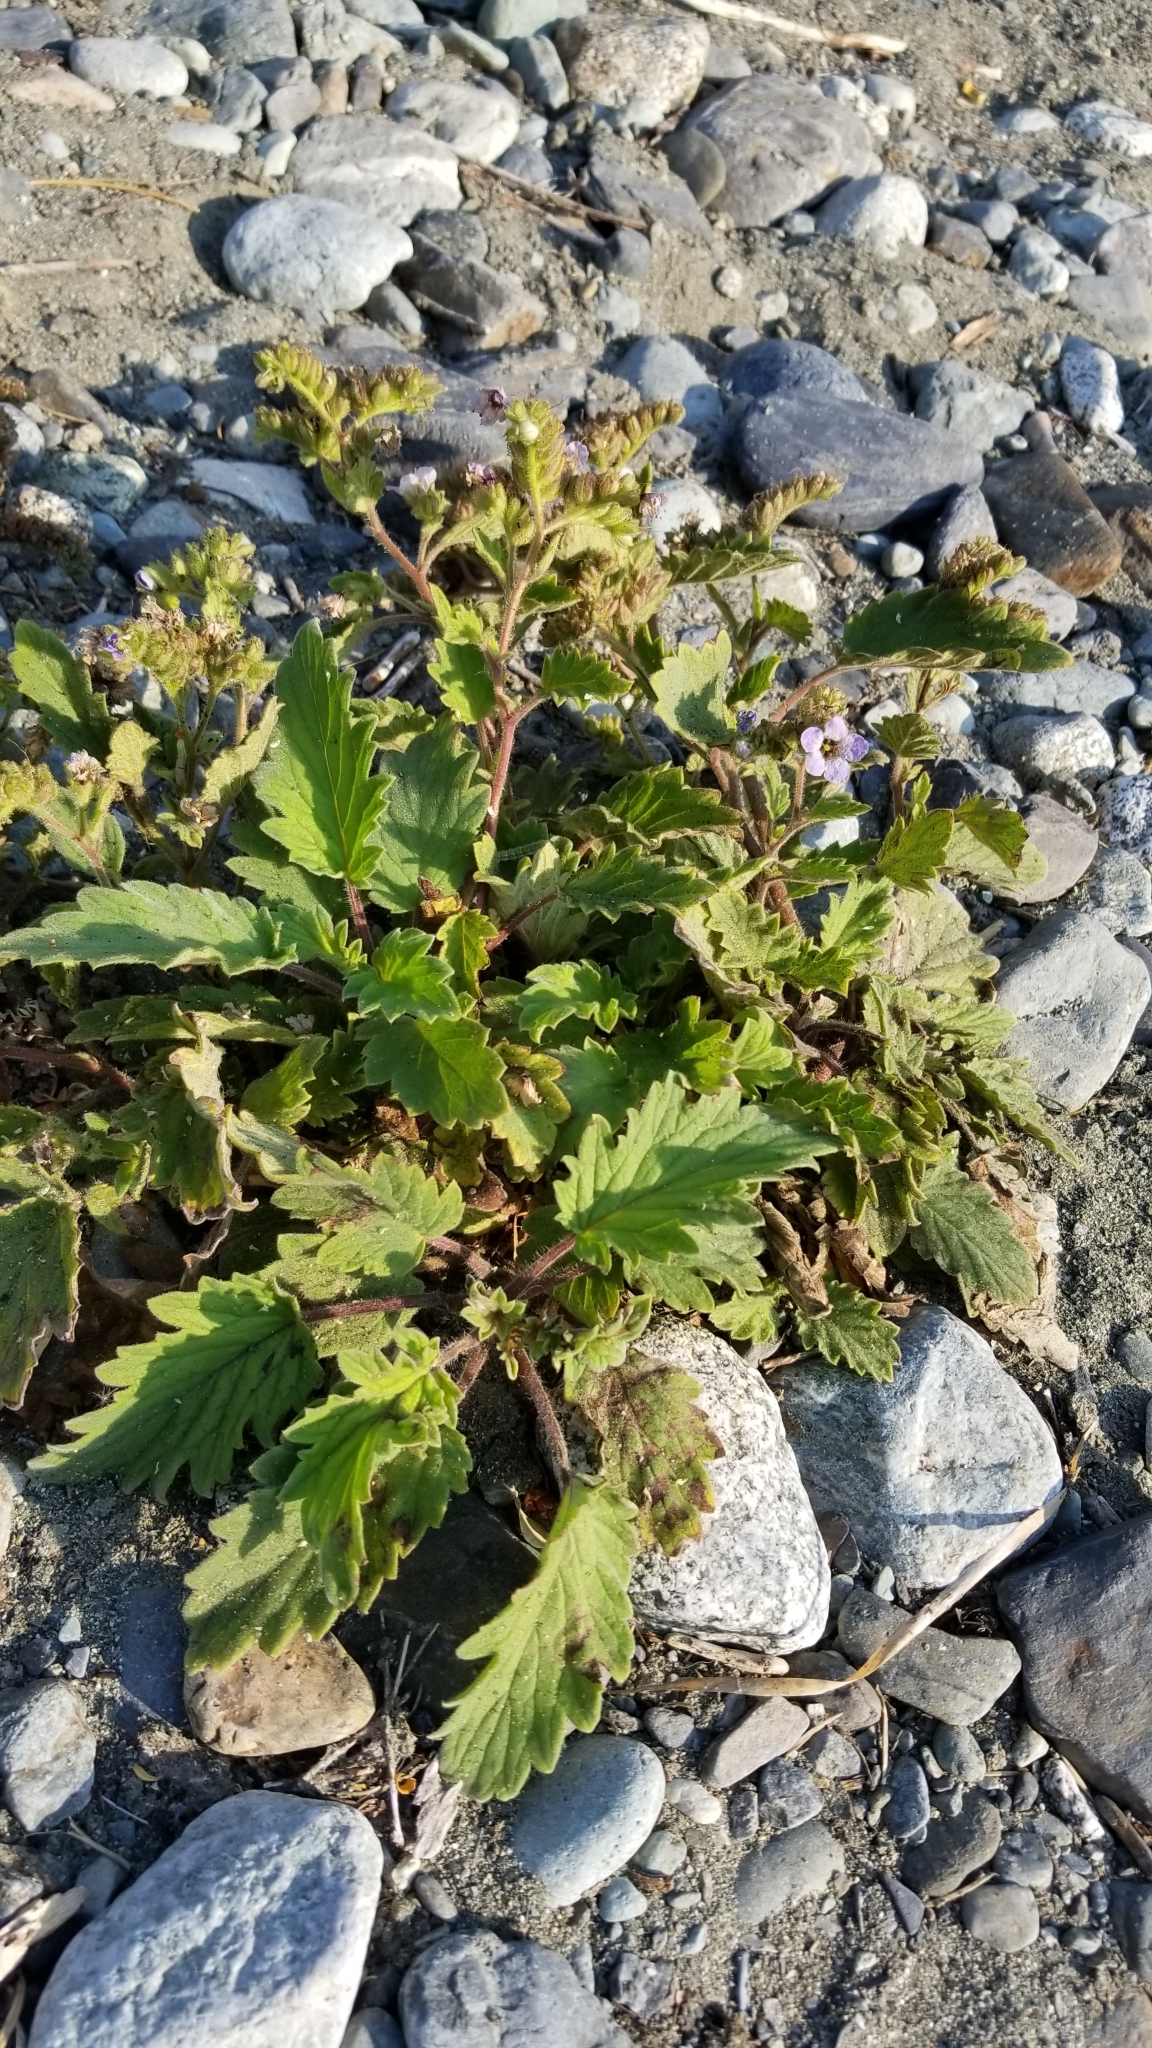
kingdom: Plantae
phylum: Tracheophyta
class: Magnoliopsida
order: Boraginales
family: Hydrophyllaceae
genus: Phacelia
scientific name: Phacelia bolanderi
